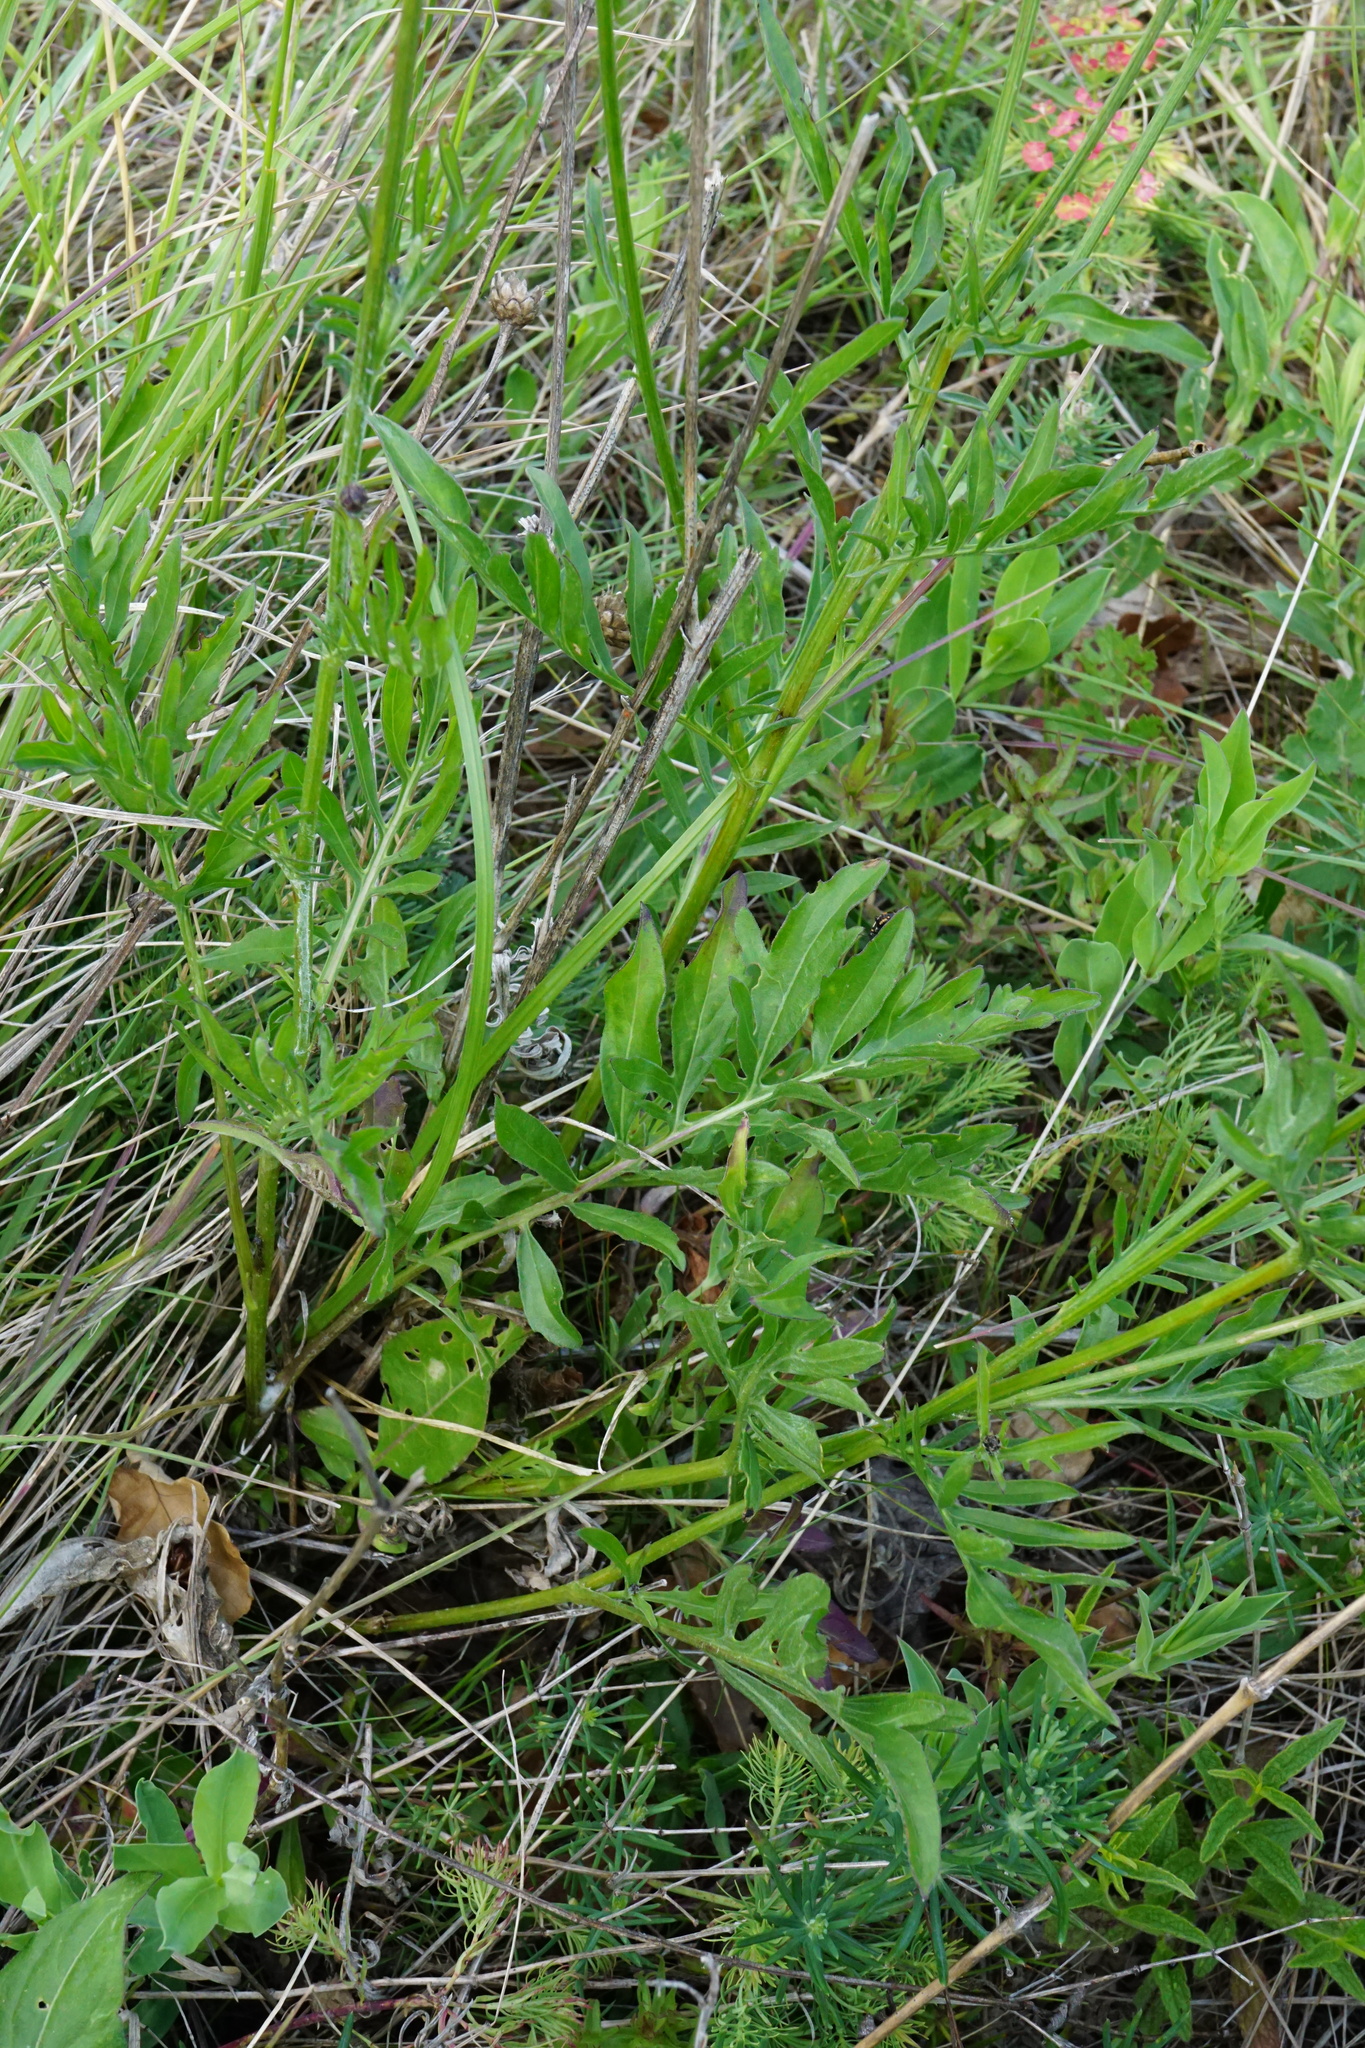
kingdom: Plantae
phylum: Tracheophyta
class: Magnoliopsida
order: Asterales
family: Asteraceae
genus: Centaurea
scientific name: Centaurea scabiosa
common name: Greater knapweed
